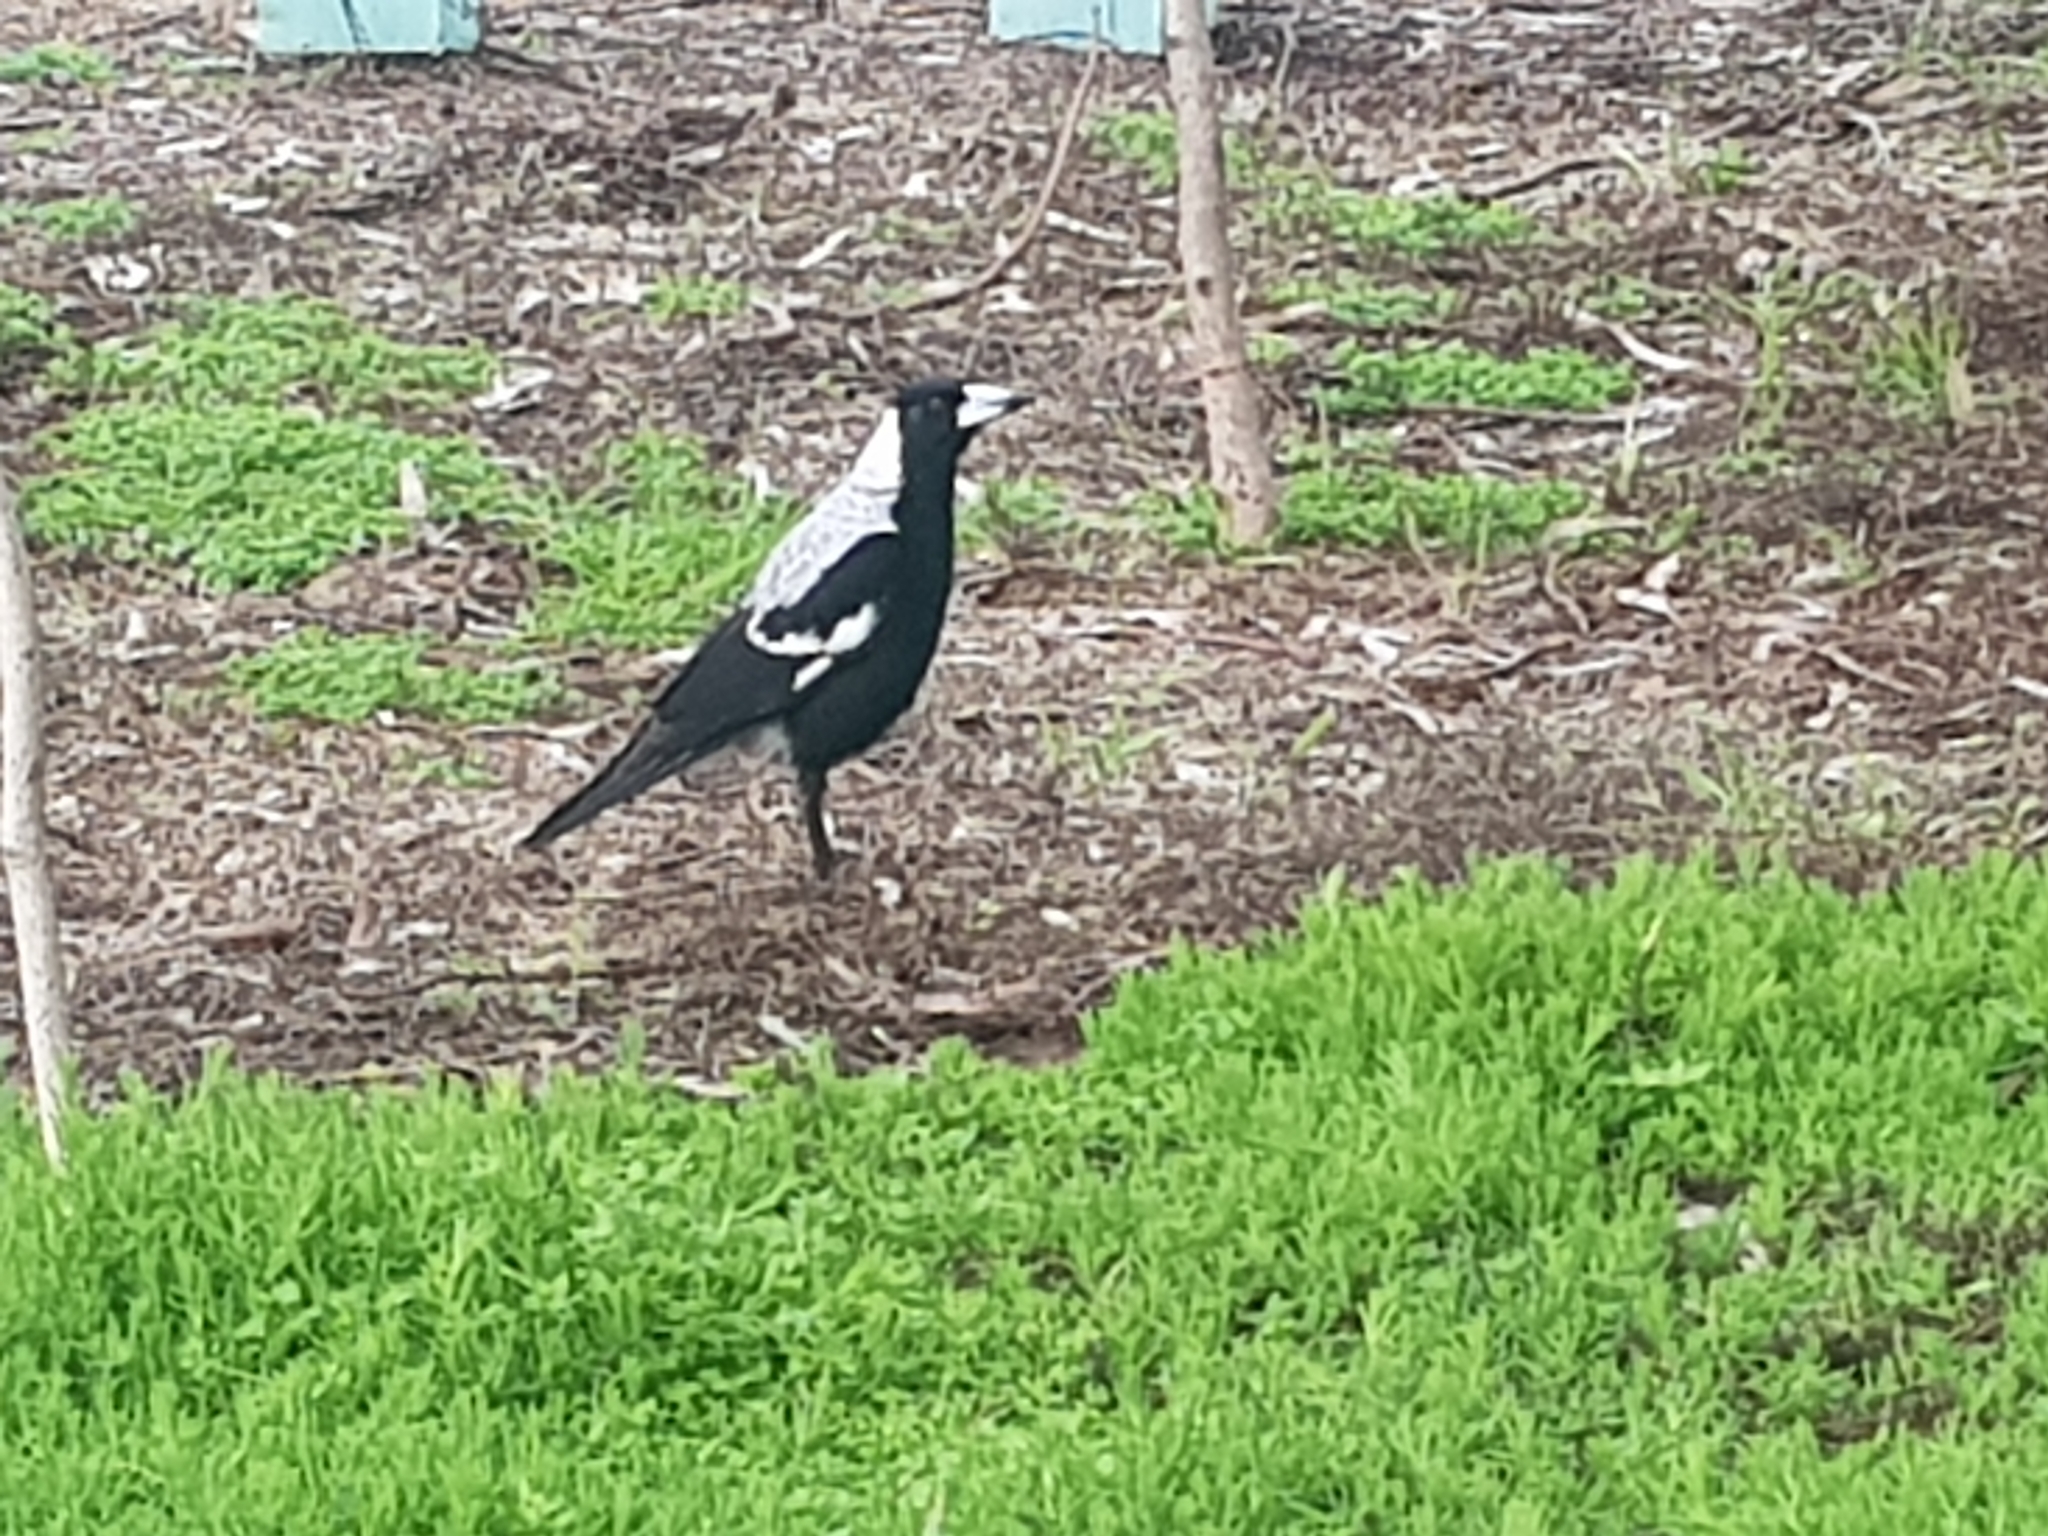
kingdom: Animalia
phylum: Chordata
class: Aves
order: Passeriformes
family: Cracticidae
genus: Gymnorhina
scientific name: Gymnorhina tibicen
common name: Australian magpie
